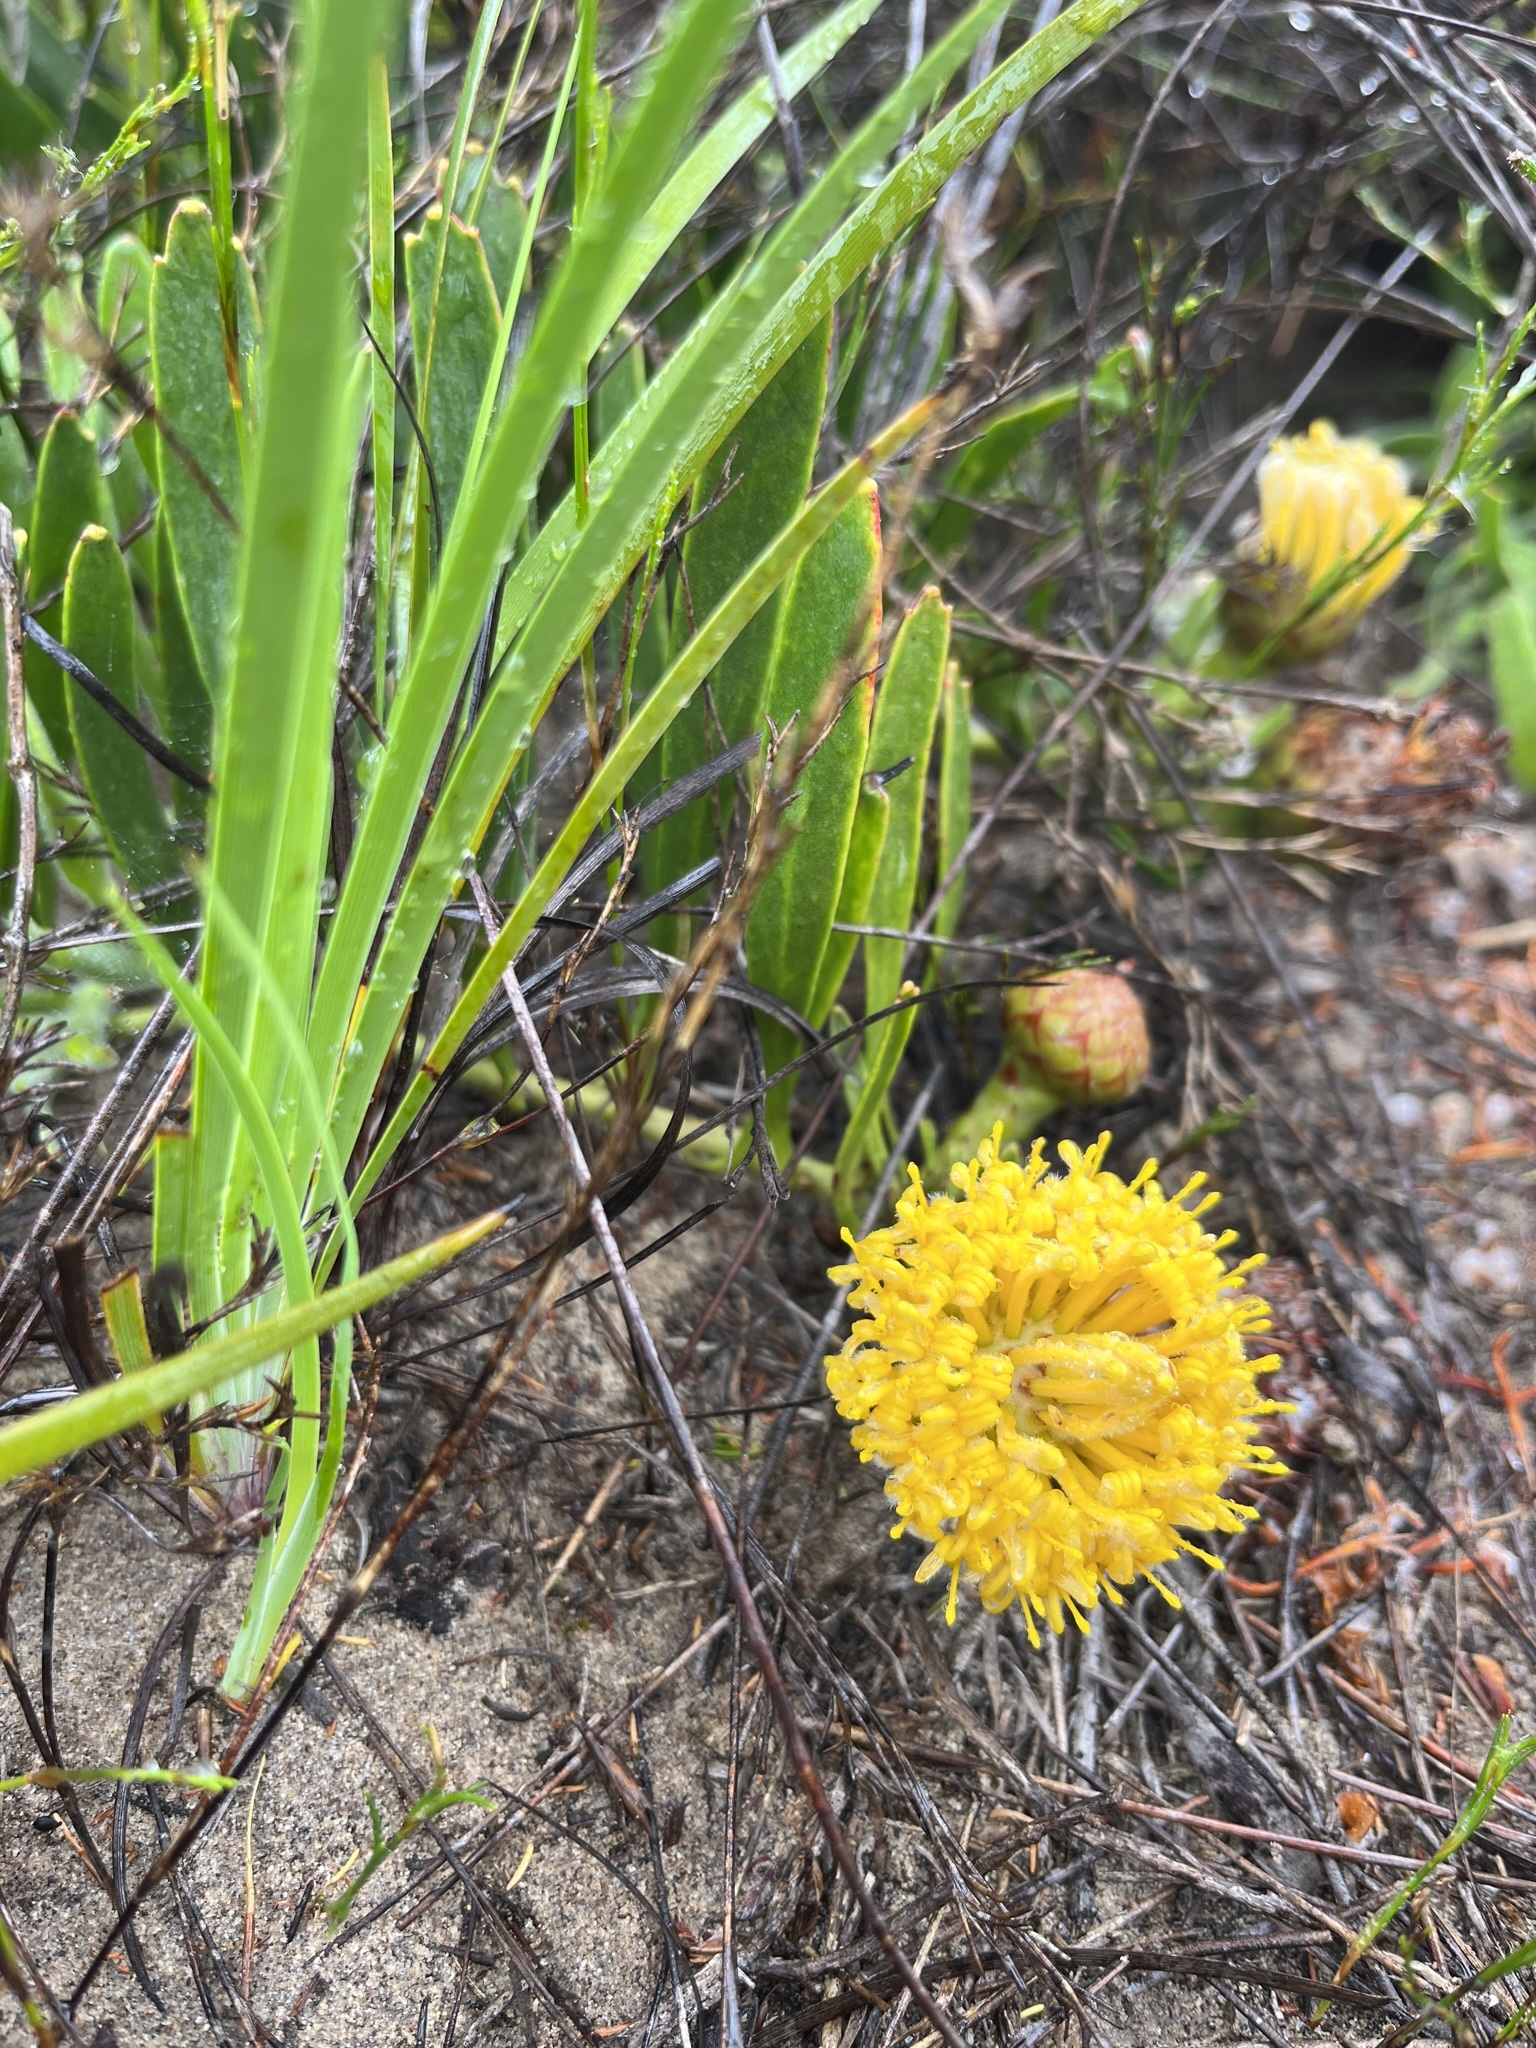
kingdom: Plantae
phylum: Tracheophyta
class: Magnoliopsida
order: Proteales
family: Proteaceae
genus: Leucospermum
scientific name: Leucospermum hypophyllocarpodendron
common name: Snakestem pincushion
